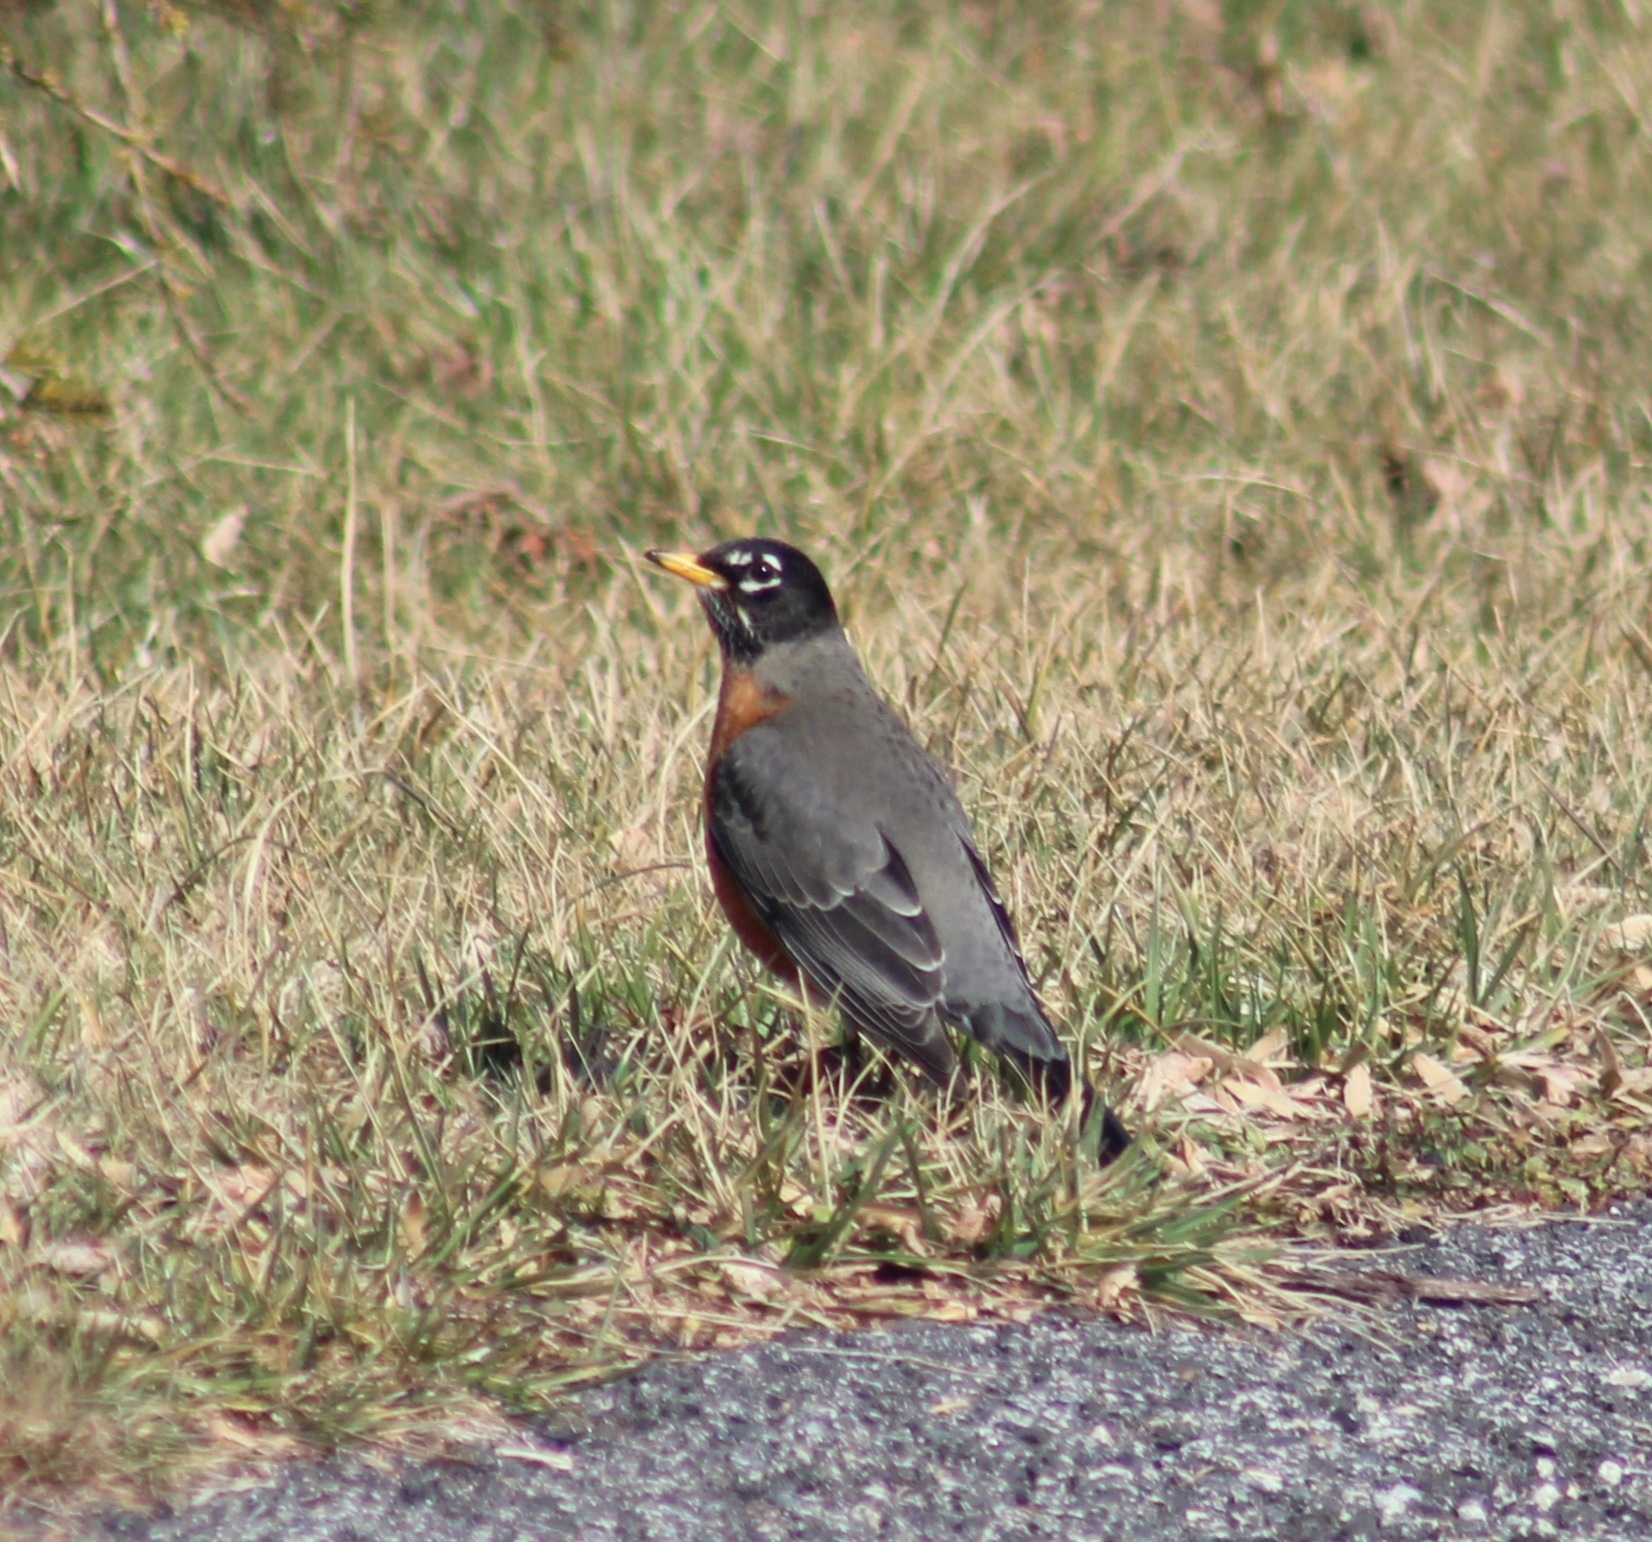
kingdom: Animalia
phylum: Chordata
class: Aves
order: Passeriformes
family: Turdidae
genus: Turdus
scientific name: Turdus migratorius
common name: American robin
